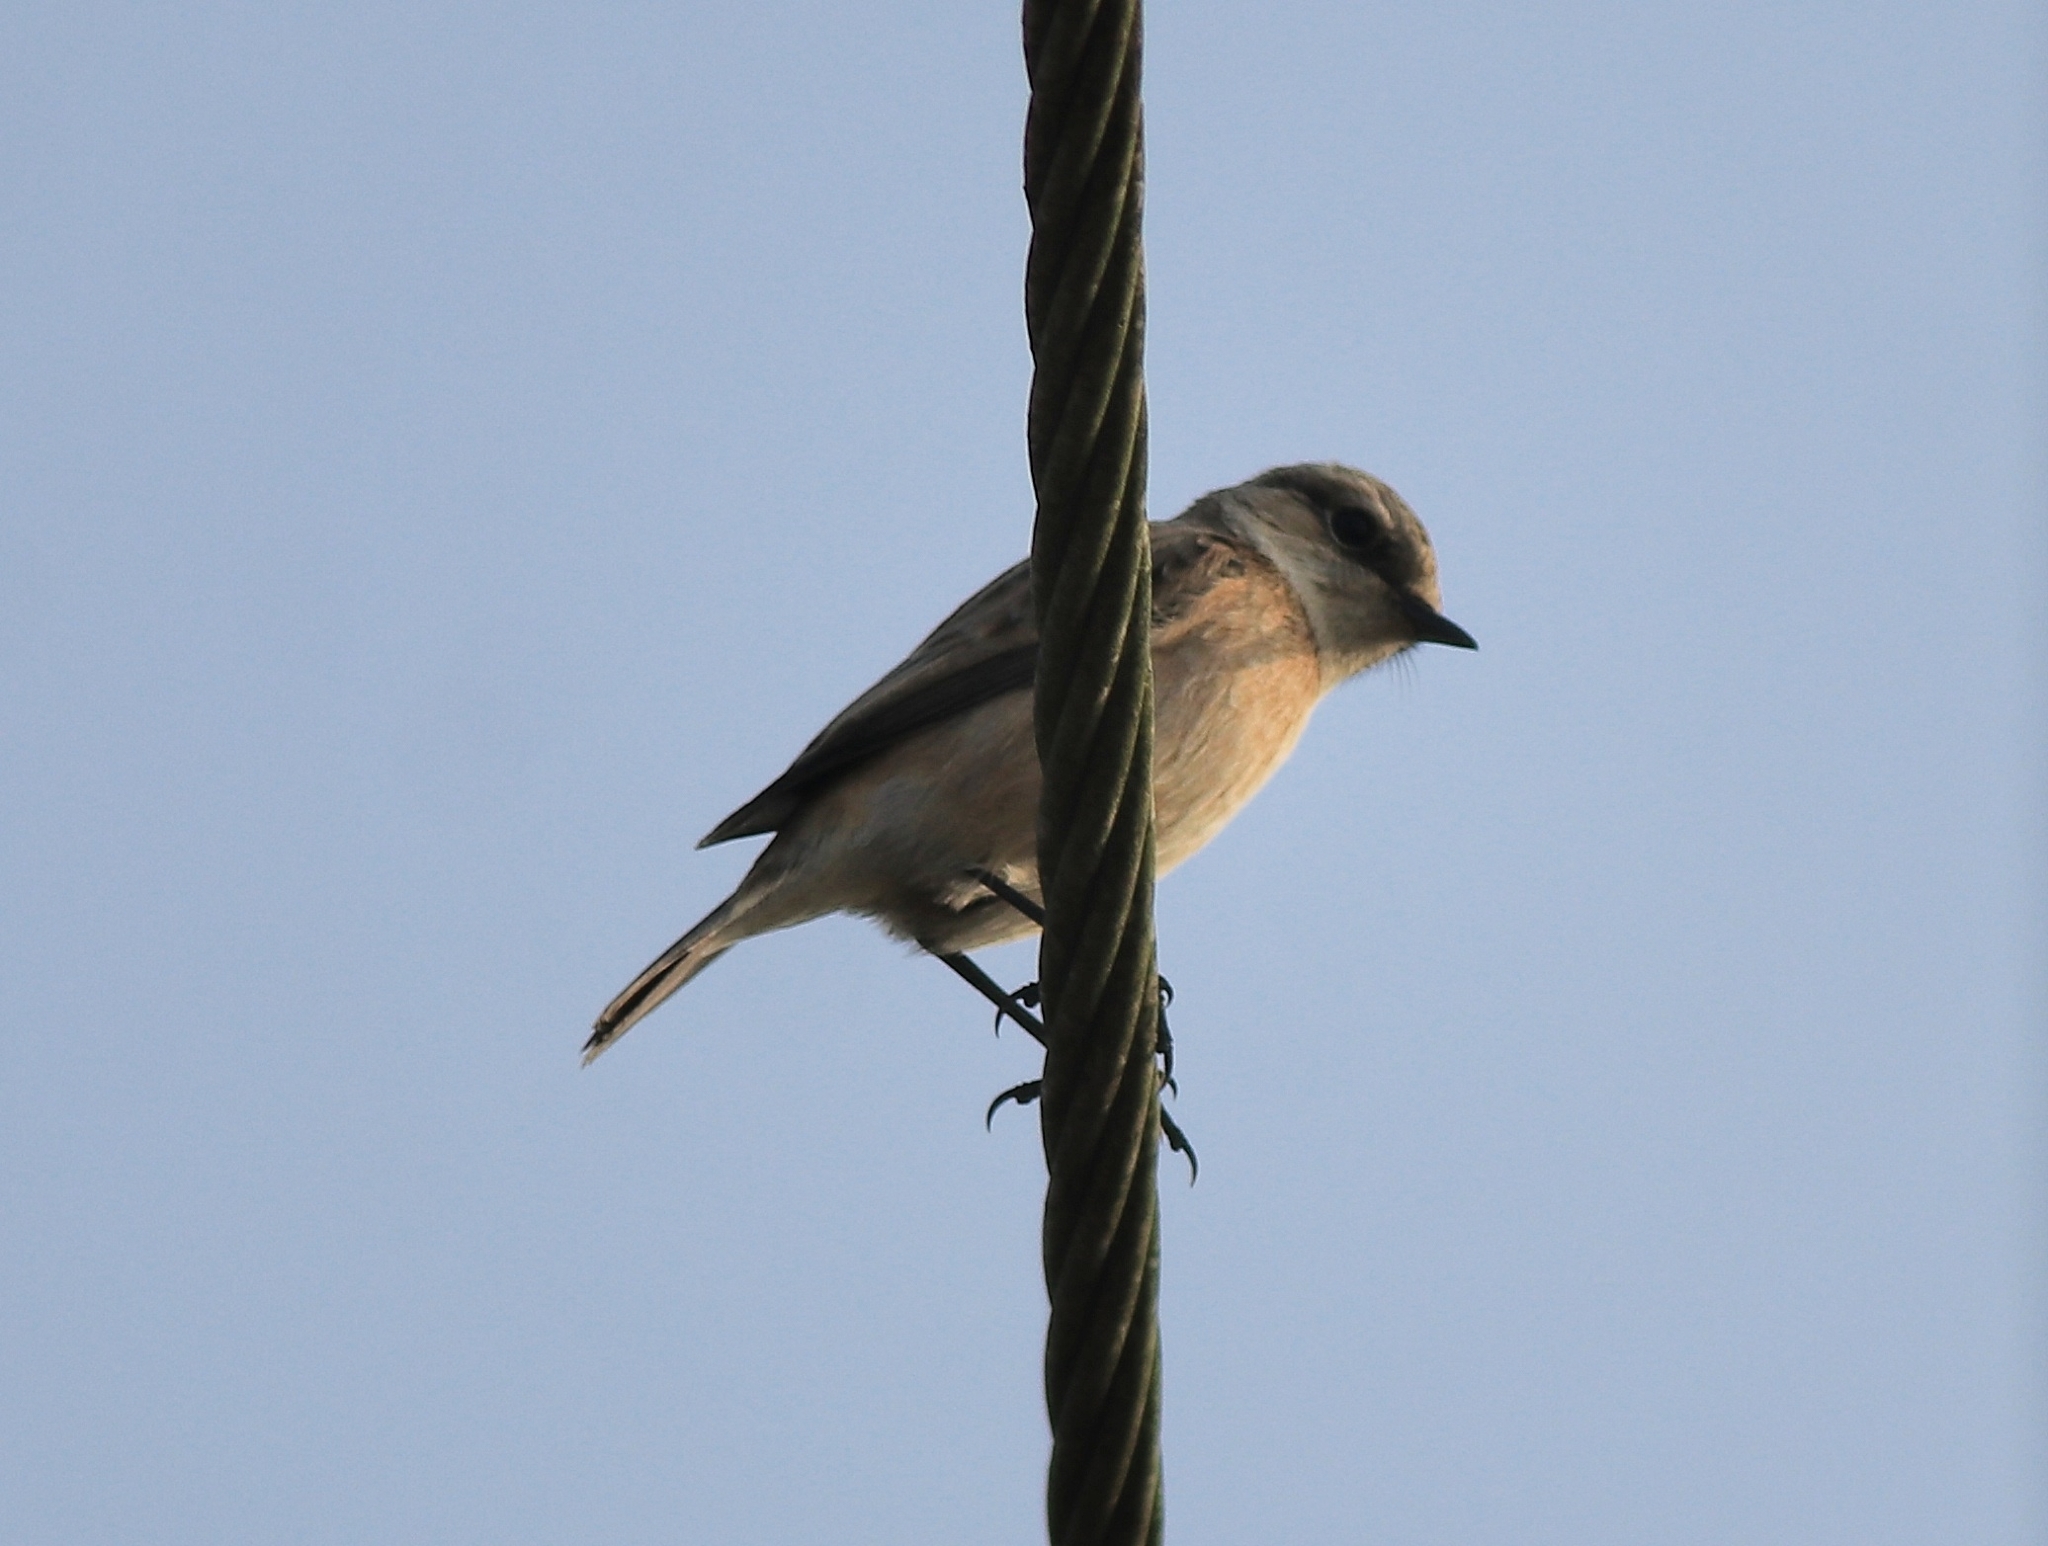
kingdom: Animalia
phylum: Chordata
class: Aves
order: Passeriformes
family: Muscicapidae
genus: Saxicola
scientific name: Saxicola maurus
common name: Siberian stonechat
